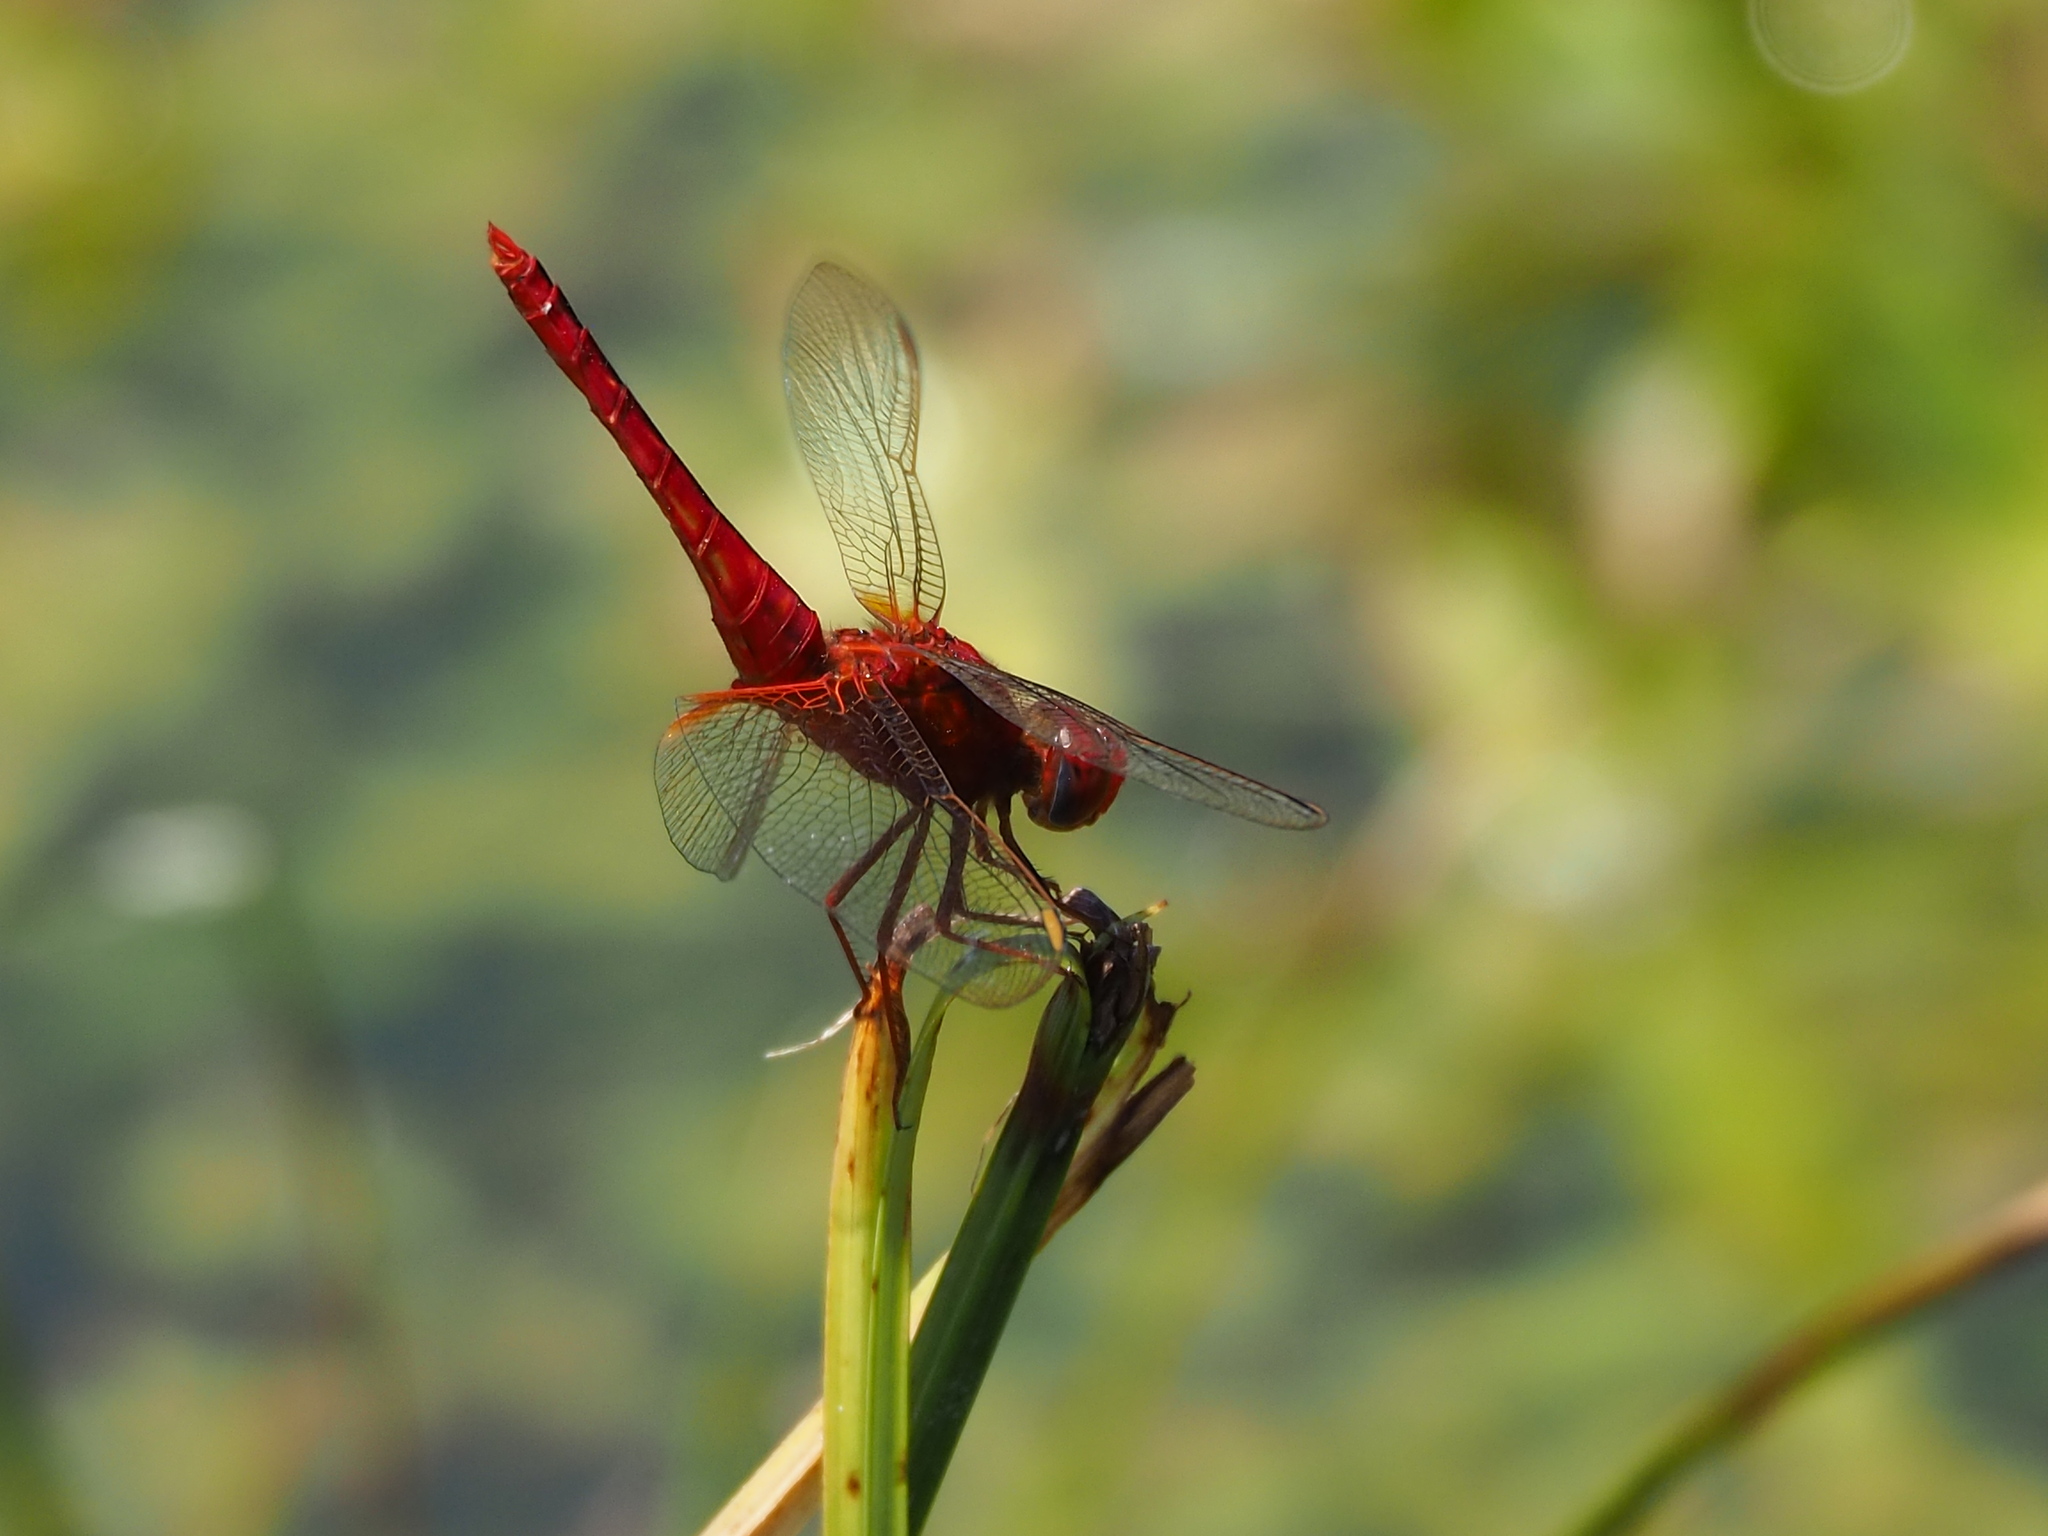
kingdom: Animalia
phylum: Arthropoda
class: Insecta
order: Odonata
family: Libellulidae
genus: Crocothemis
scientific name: Crocothemis servilia
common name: Scarlet skimmer
